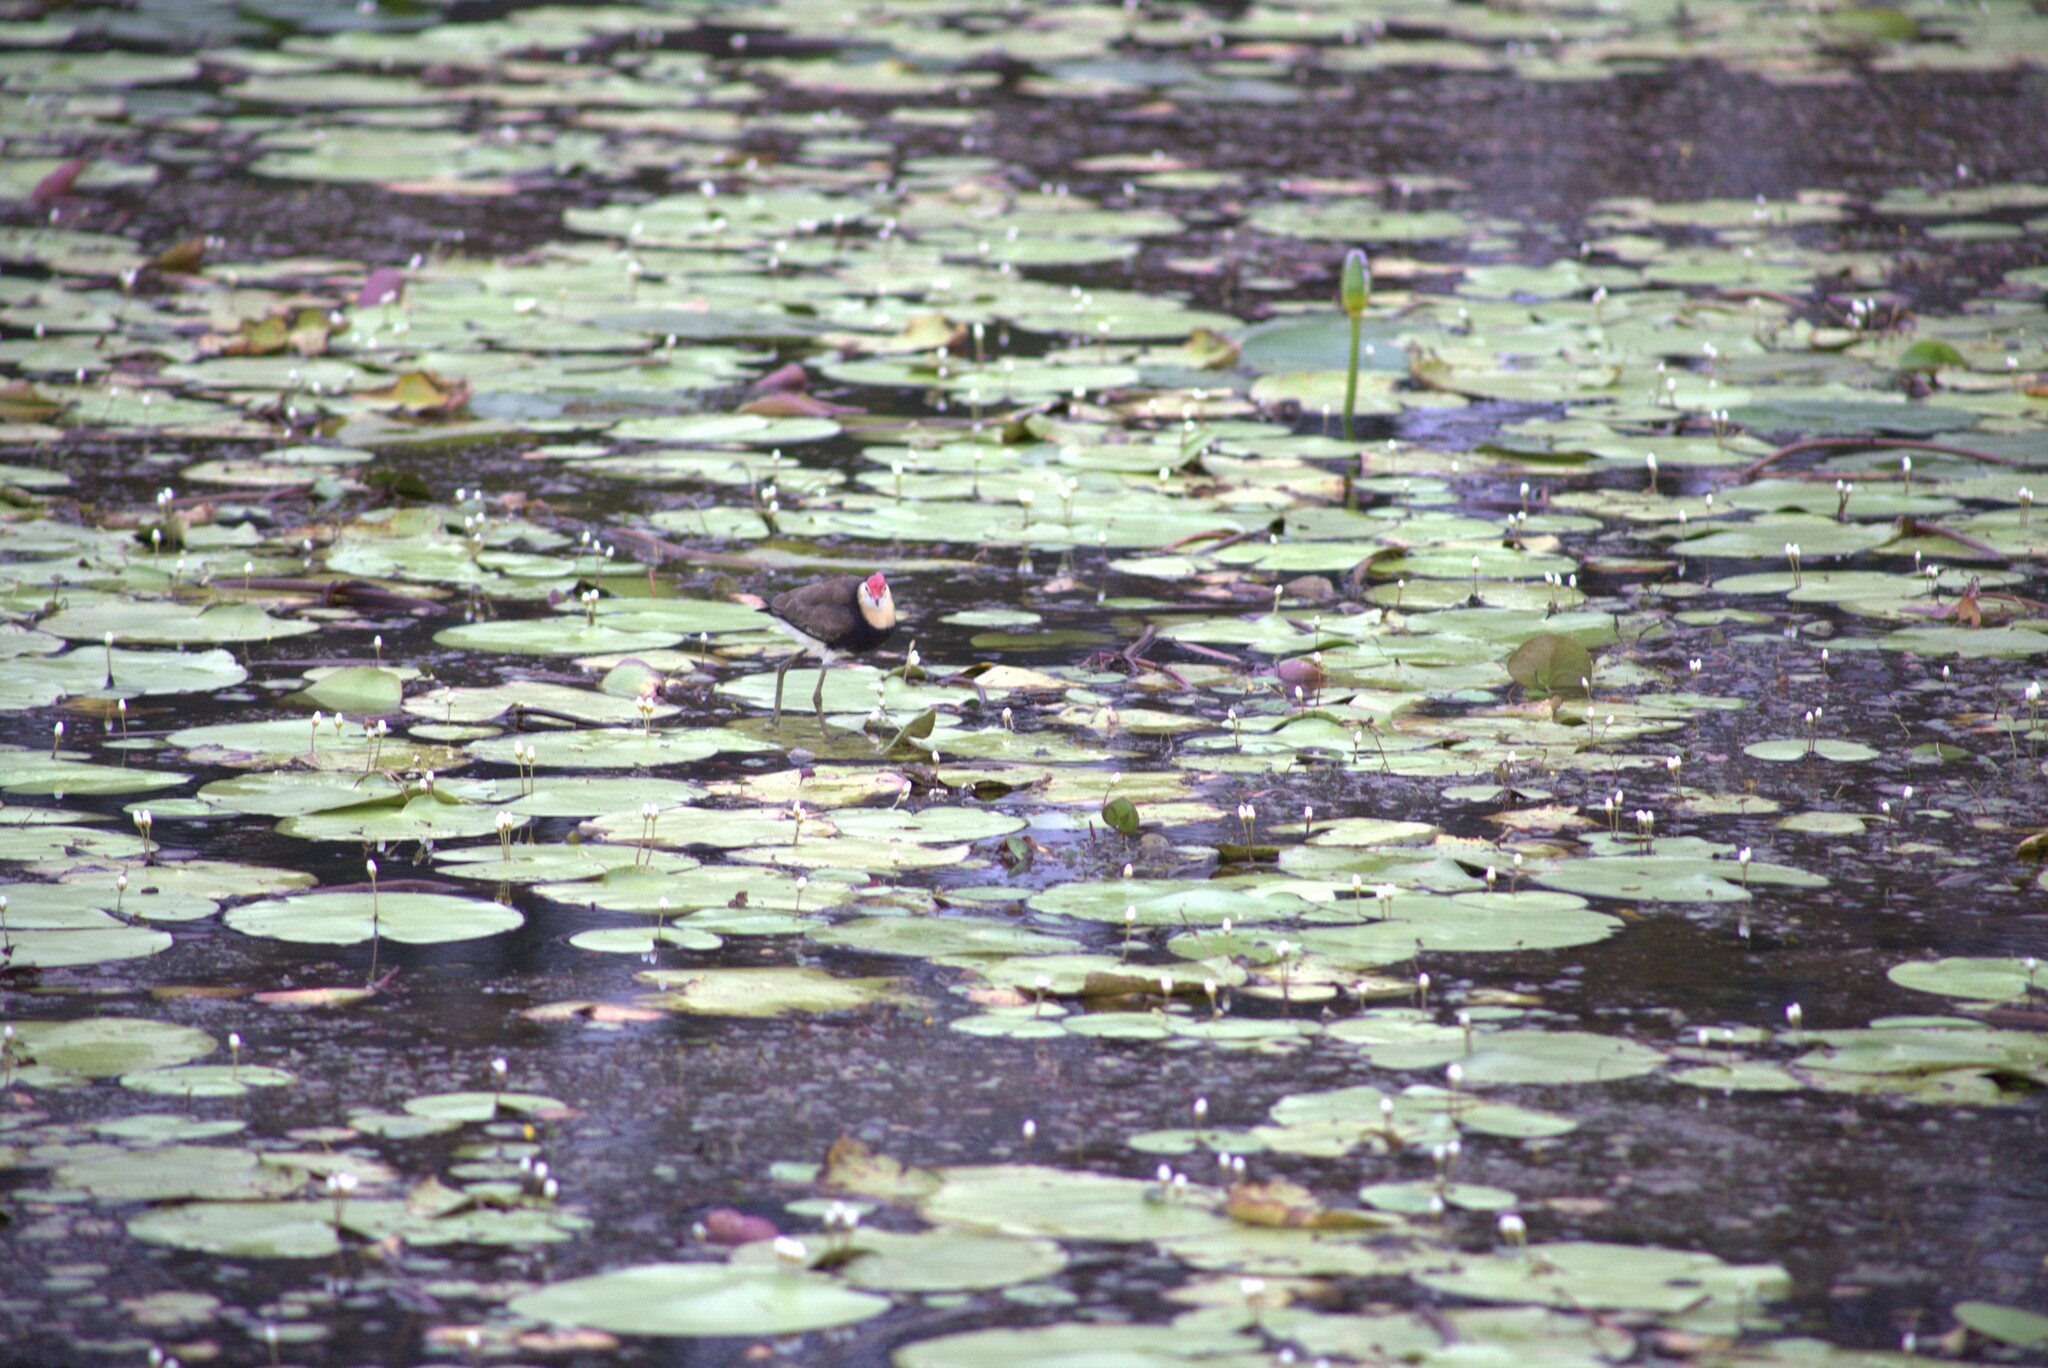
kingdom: Animalia
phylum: Chordata
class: Aves
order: Charadriiformes
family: Jacanidae
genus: Irediparra
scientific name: Irediparra gallinacea
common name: Comb-crested jacana
